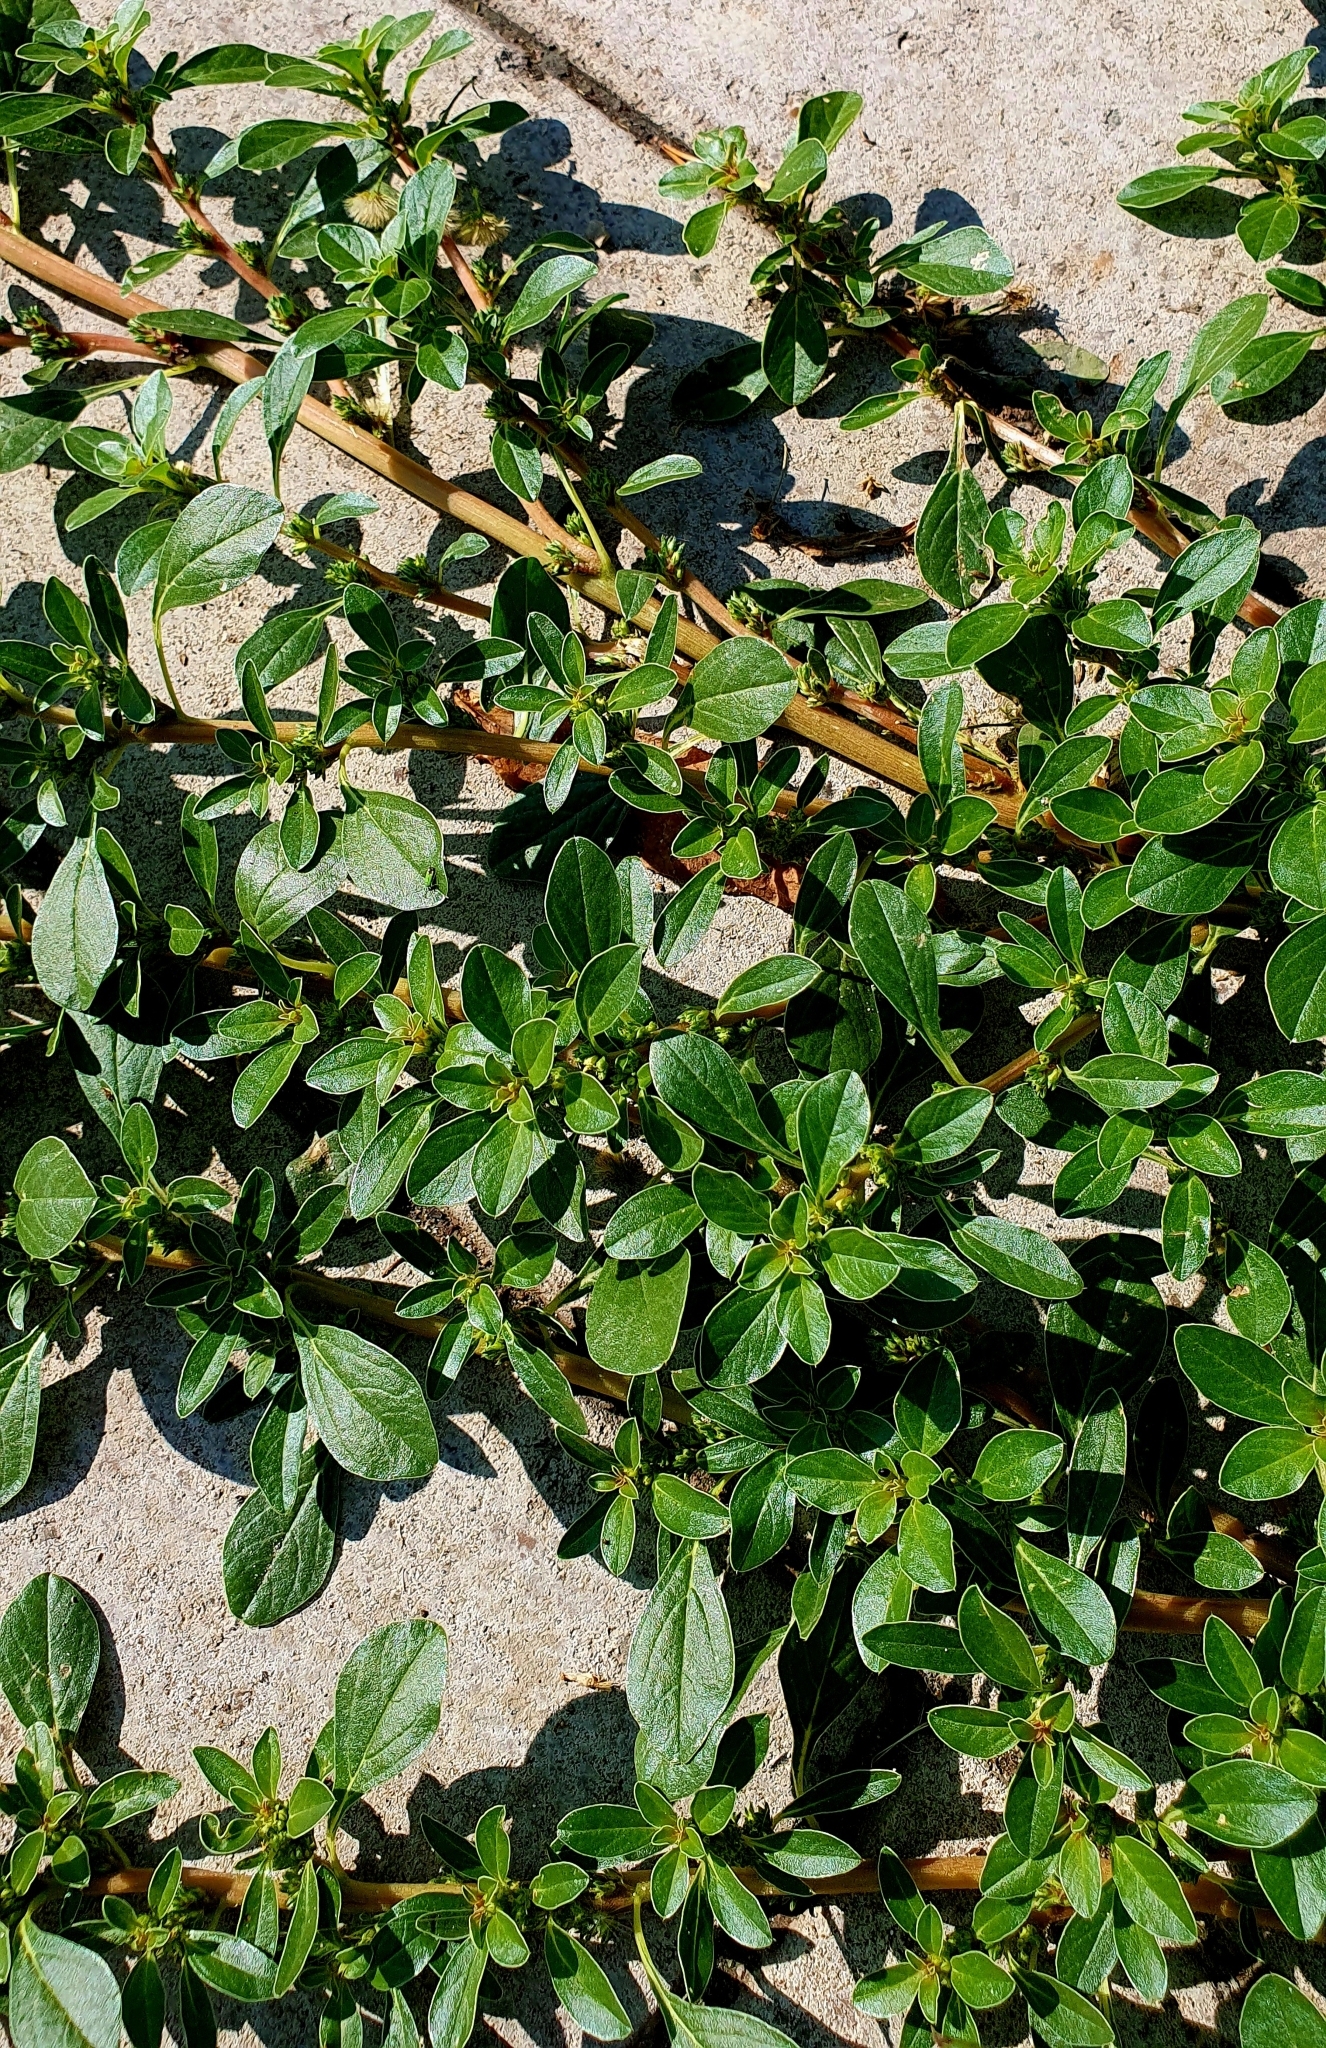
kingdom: Plantae
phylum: Tracheophyta
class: Magnoliopsida
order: Caryophyllales
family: Amaranthaceae
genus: Amaranthus
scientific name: Amaranthus blitoides
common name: Prostrate pigweed
